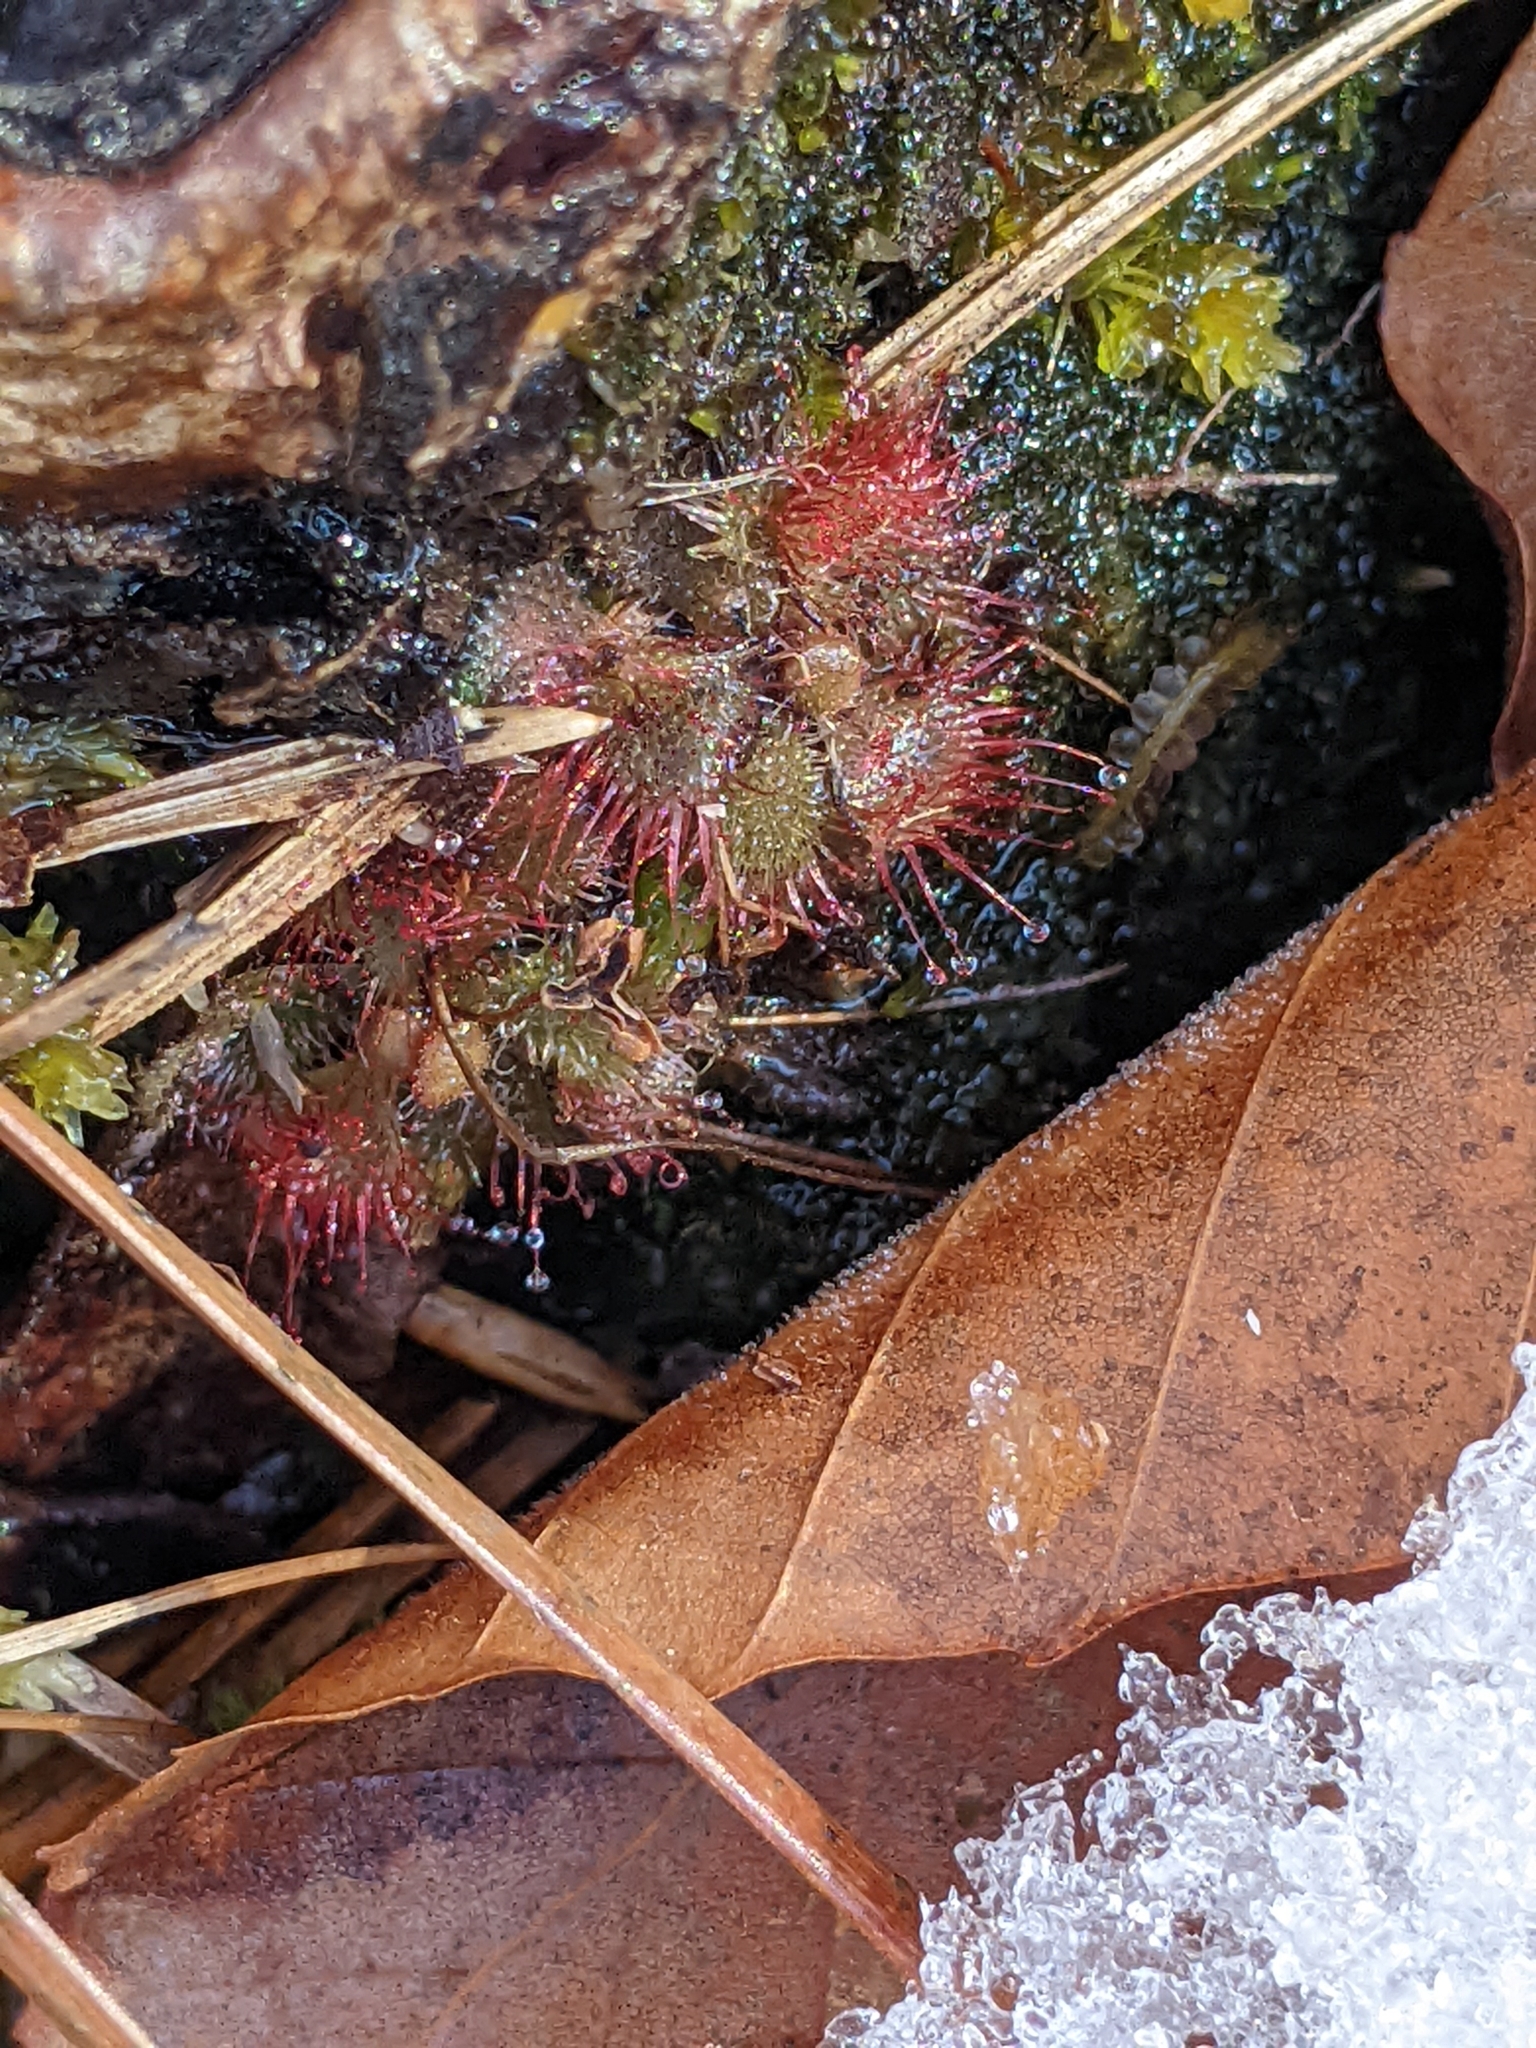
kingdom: Plantae
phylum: Tracheophyta
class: Magnoliopsida
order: Caryophyllales
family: Droseraceae
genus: Drosera
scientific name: Drosera brevifolia
